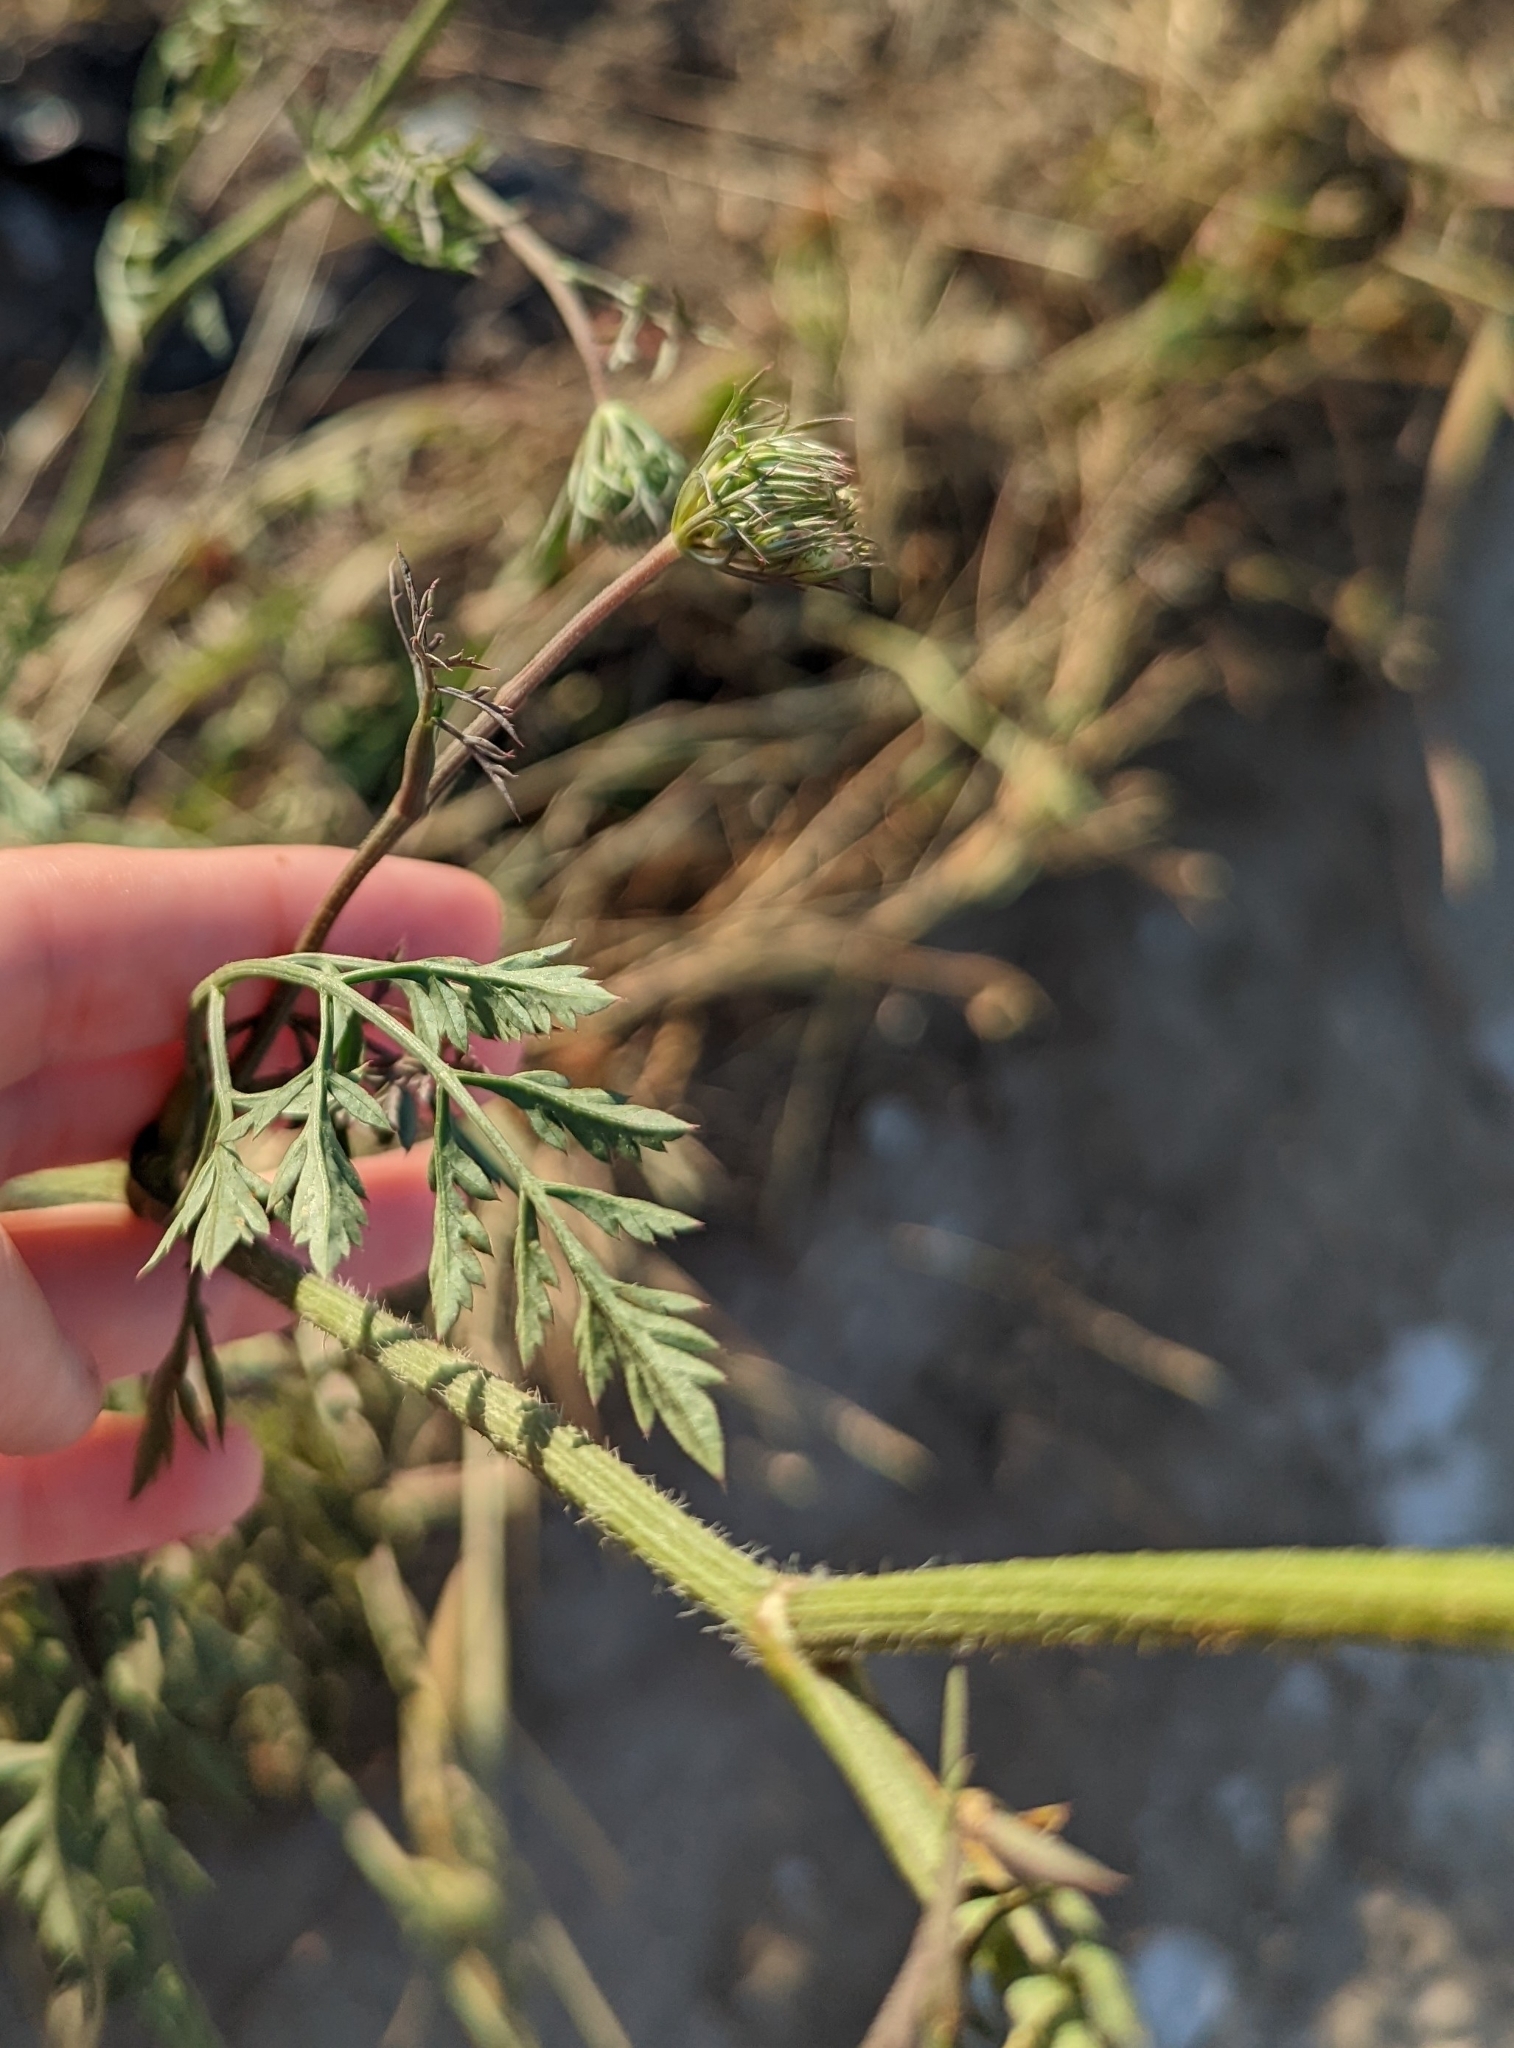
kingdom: Plantae
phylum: Tracheophyta
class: Magnoliopsida
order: Apiales
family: Apiaceae
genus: Daucus
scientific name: Daucus carota
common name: Wild carrot
